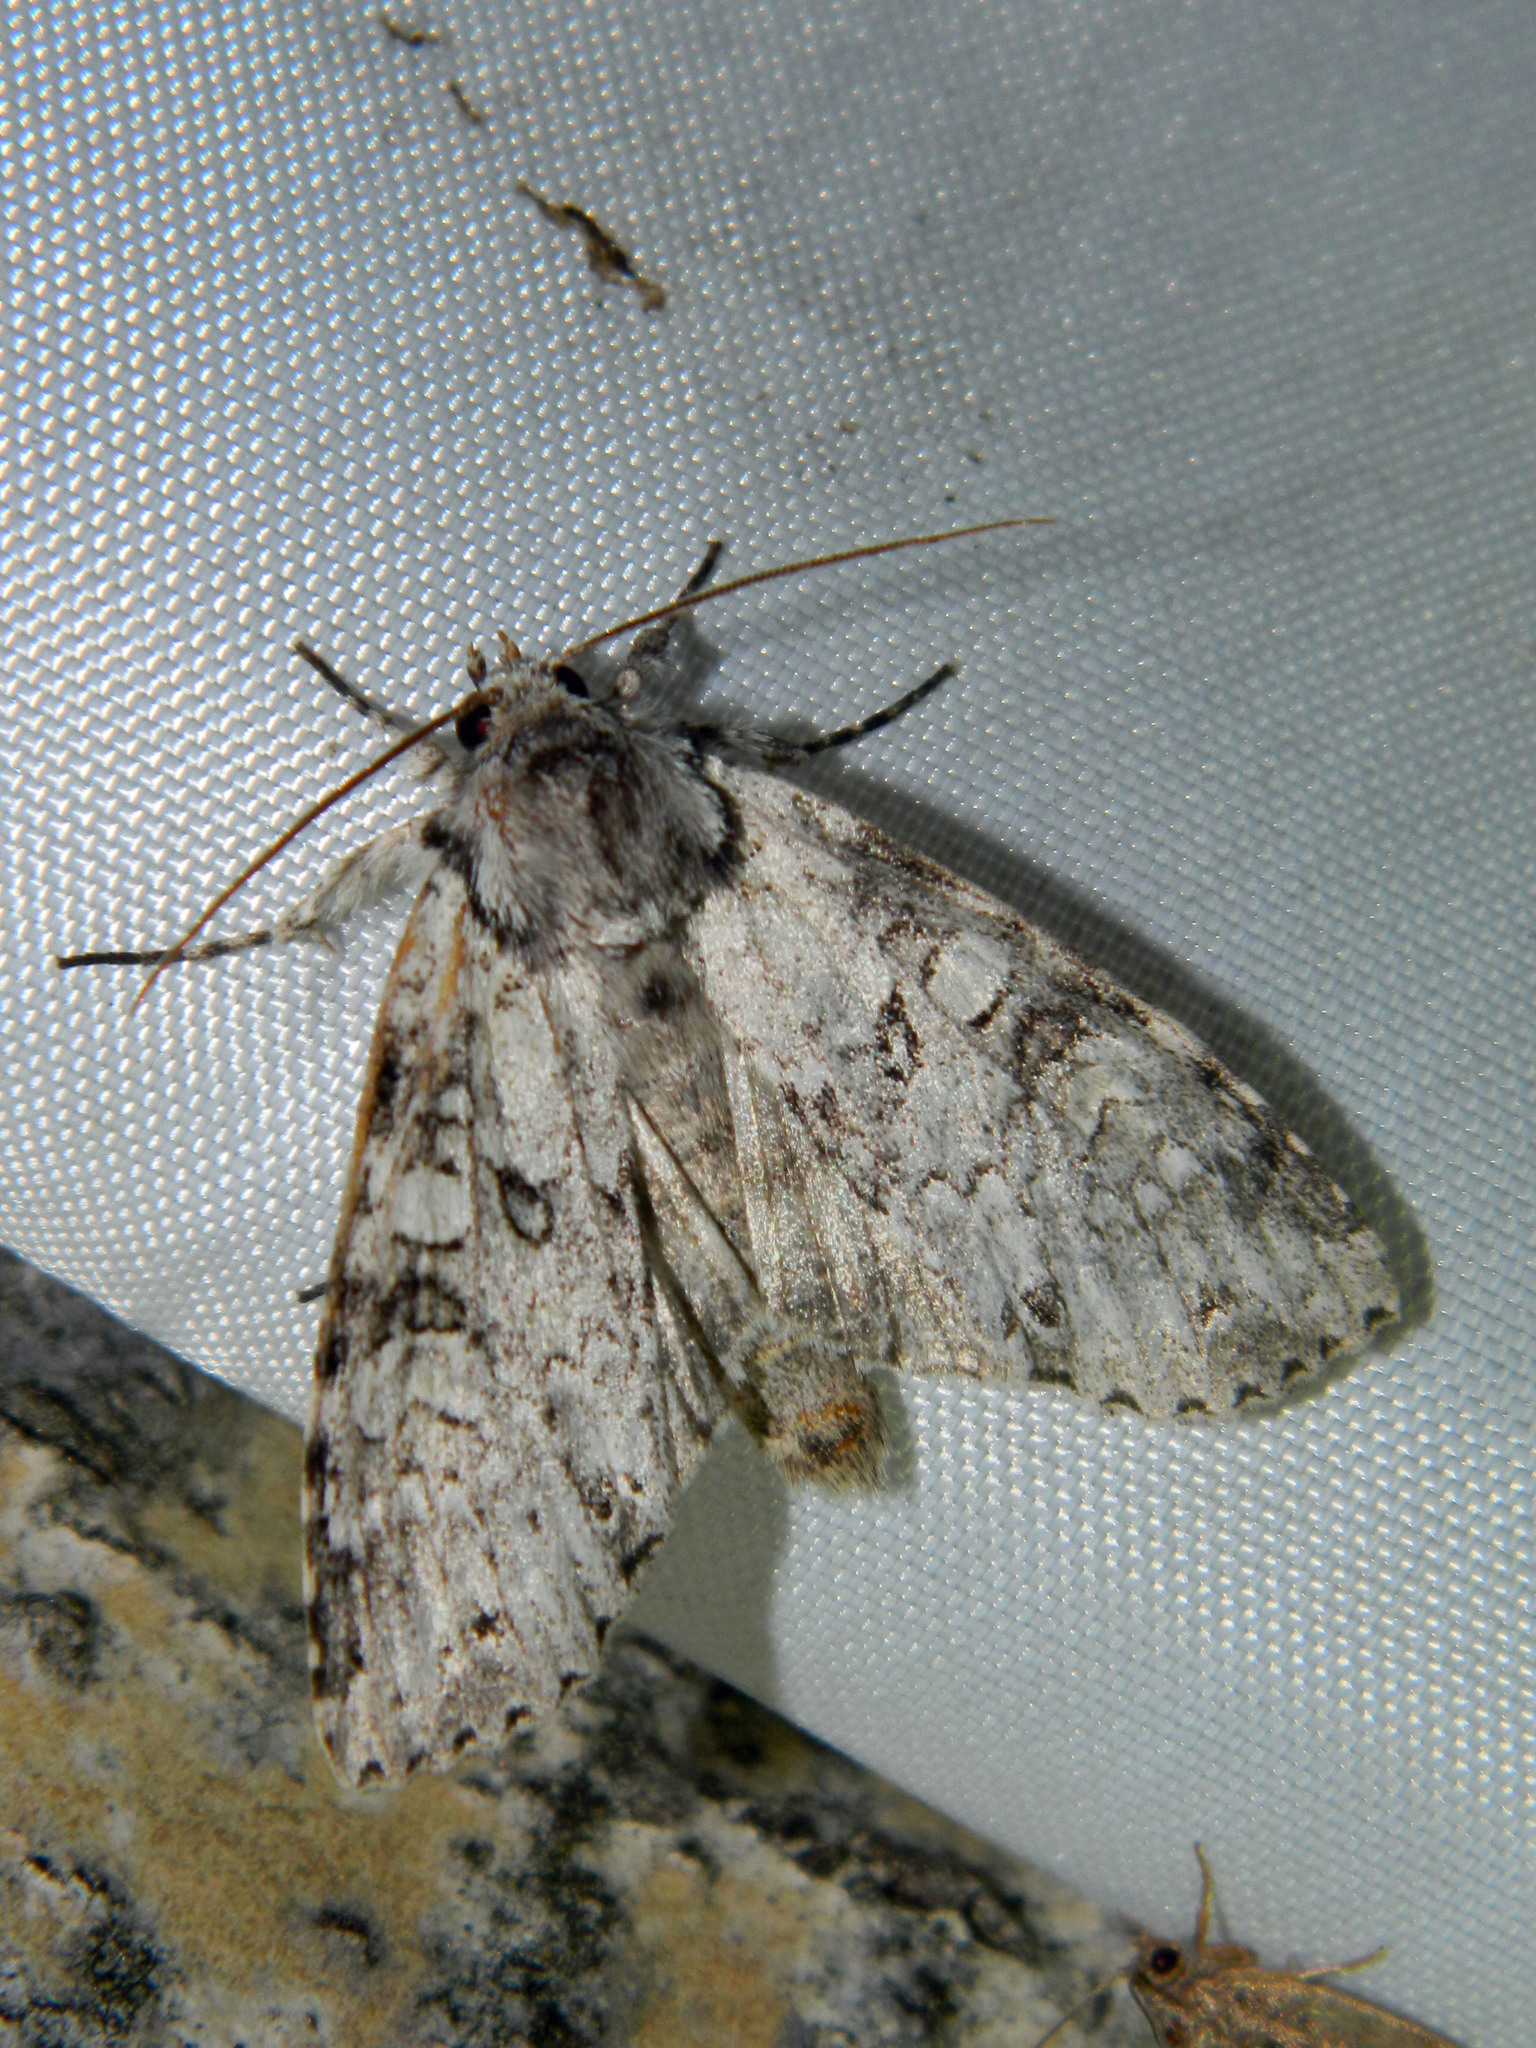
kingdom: Animalia
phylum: Arthropoda
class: Insecta
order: Lepidoptera
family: Noctuidae
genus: Polia
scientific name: Polia nimbosa
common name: Stormy arches
